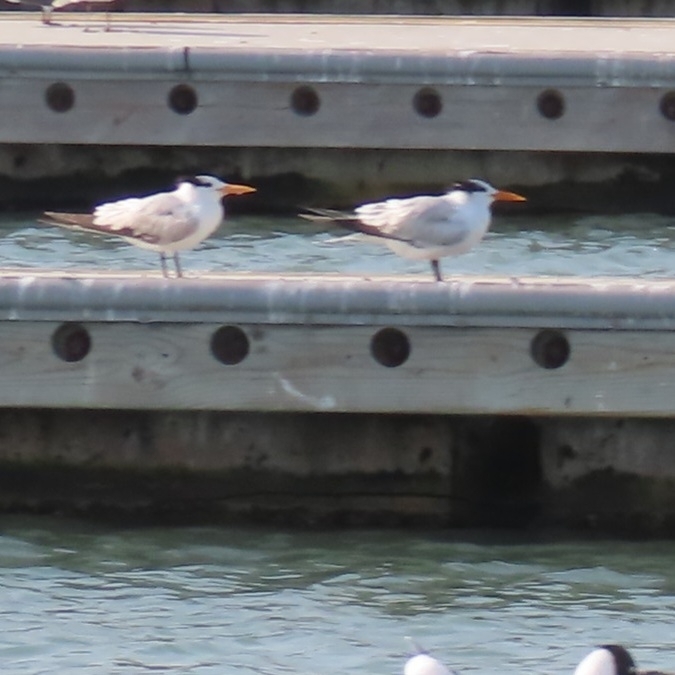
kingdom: Animalia
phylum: Chordata
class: Aves
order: Charadriiformes
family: Laridae
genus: Thalasseus
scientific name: Thalasseus maximus
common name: Royal tern
